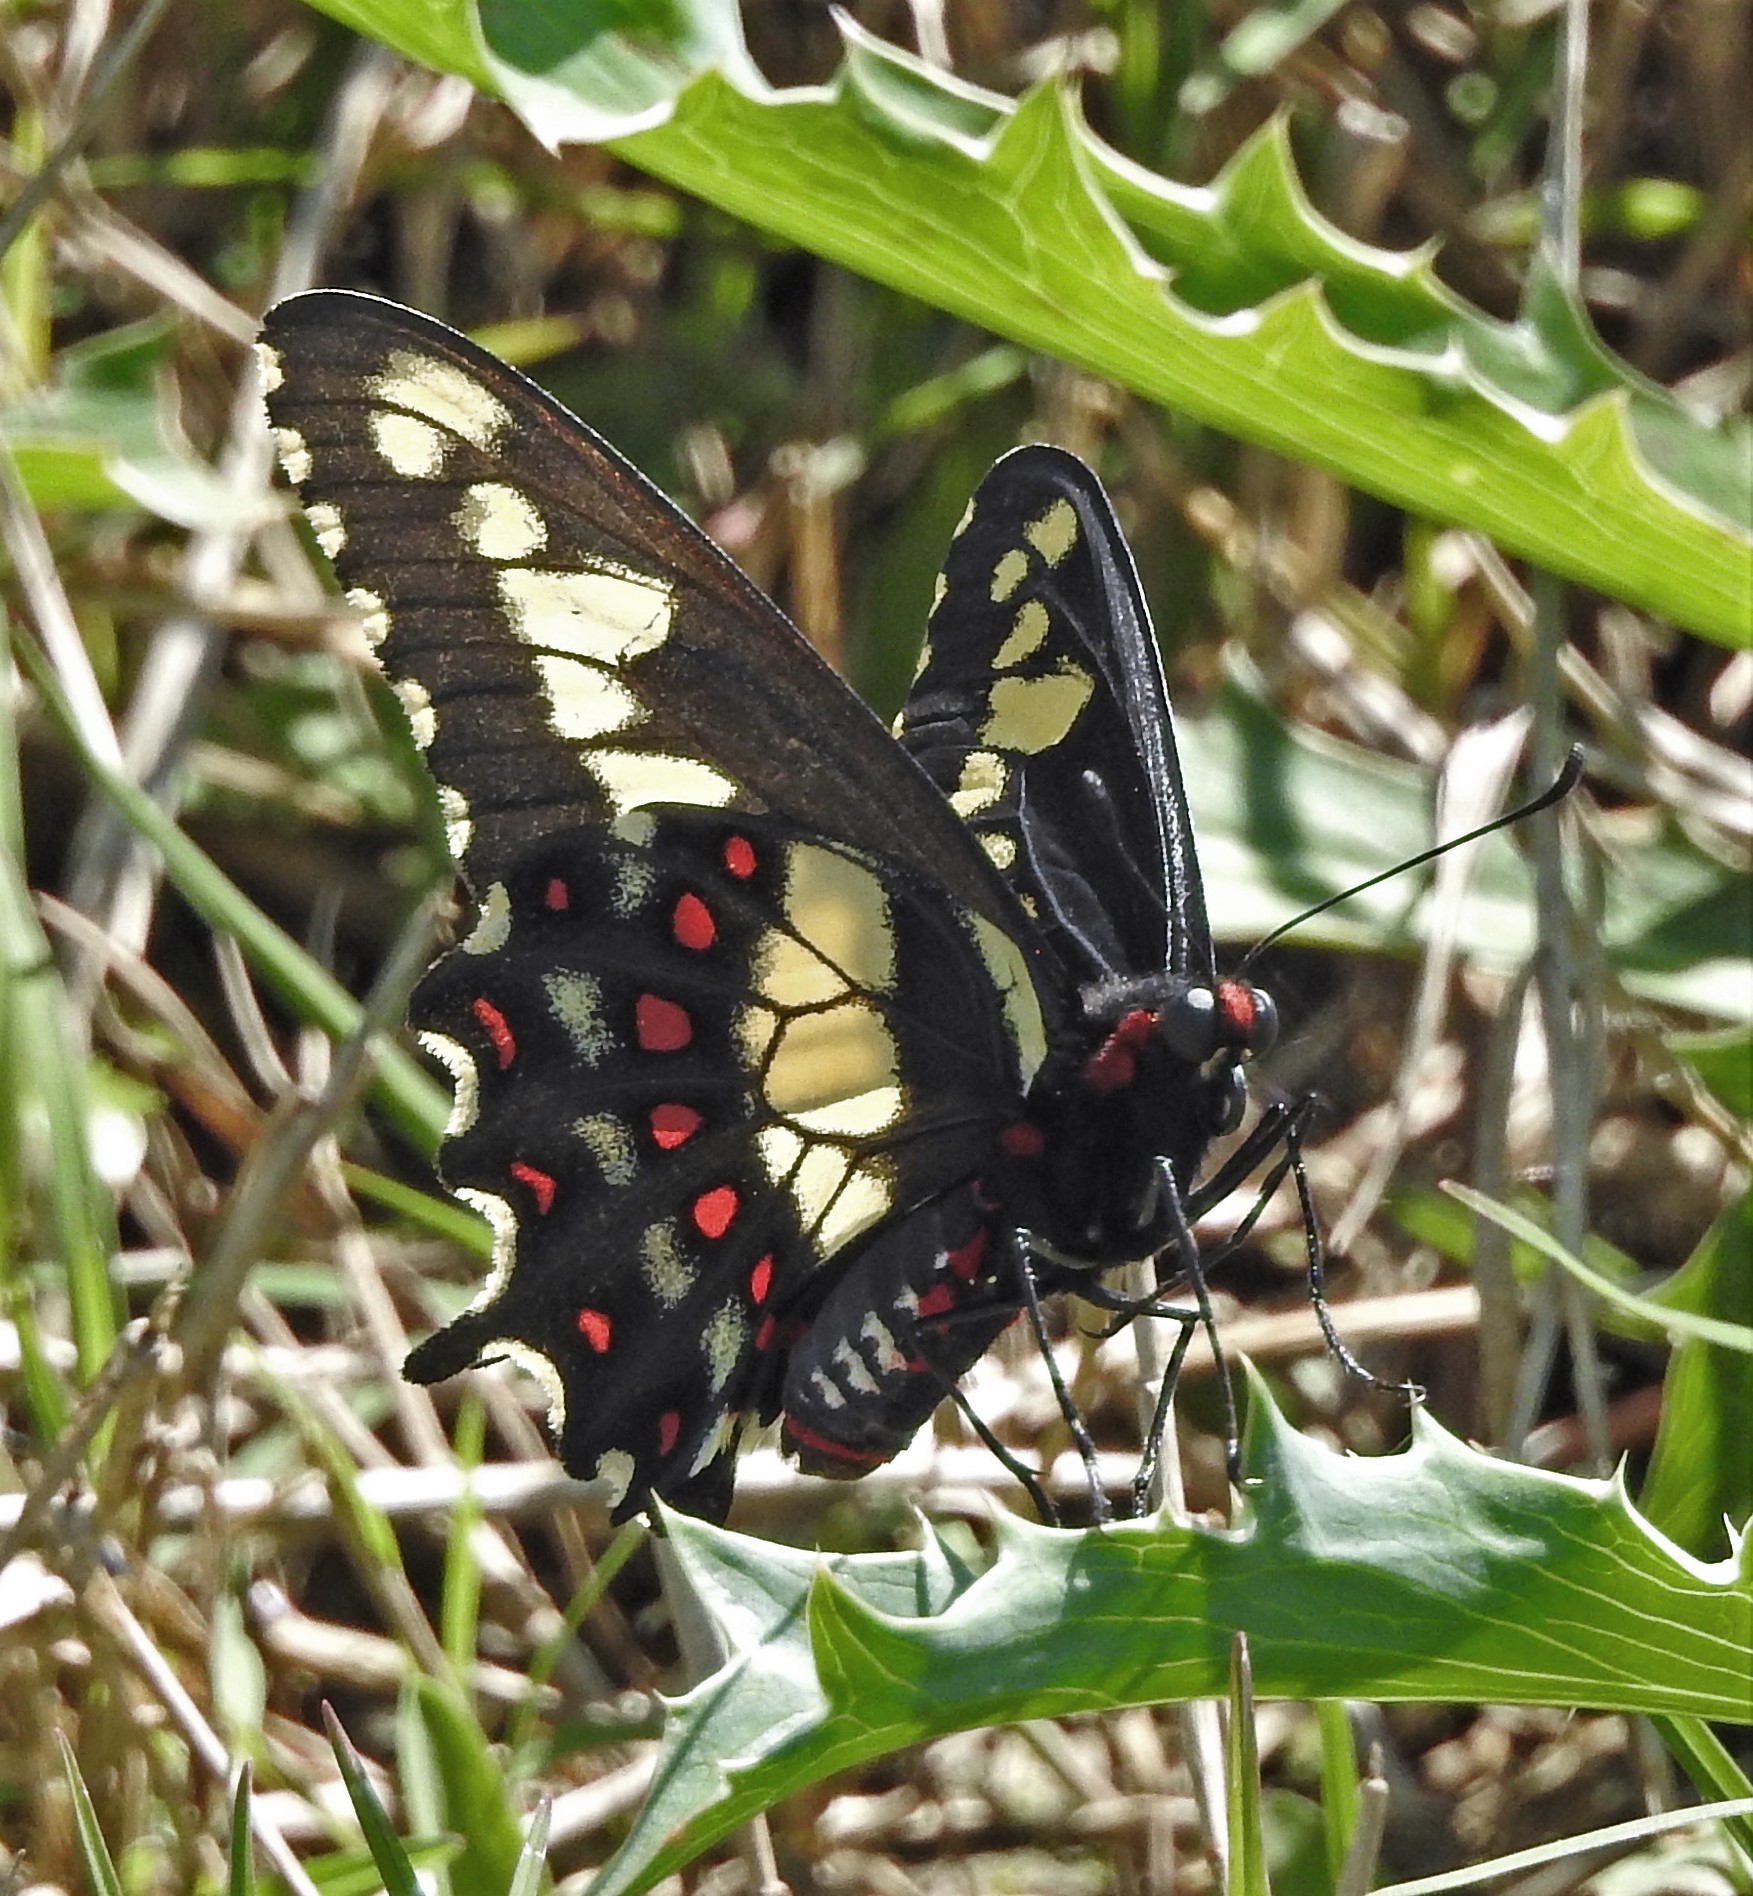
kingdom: Animalia
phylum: Arthropoda
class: Insecta
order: Lepidoptera
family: Papilionidae
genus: Euryades
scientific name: Euryades duponchelii
